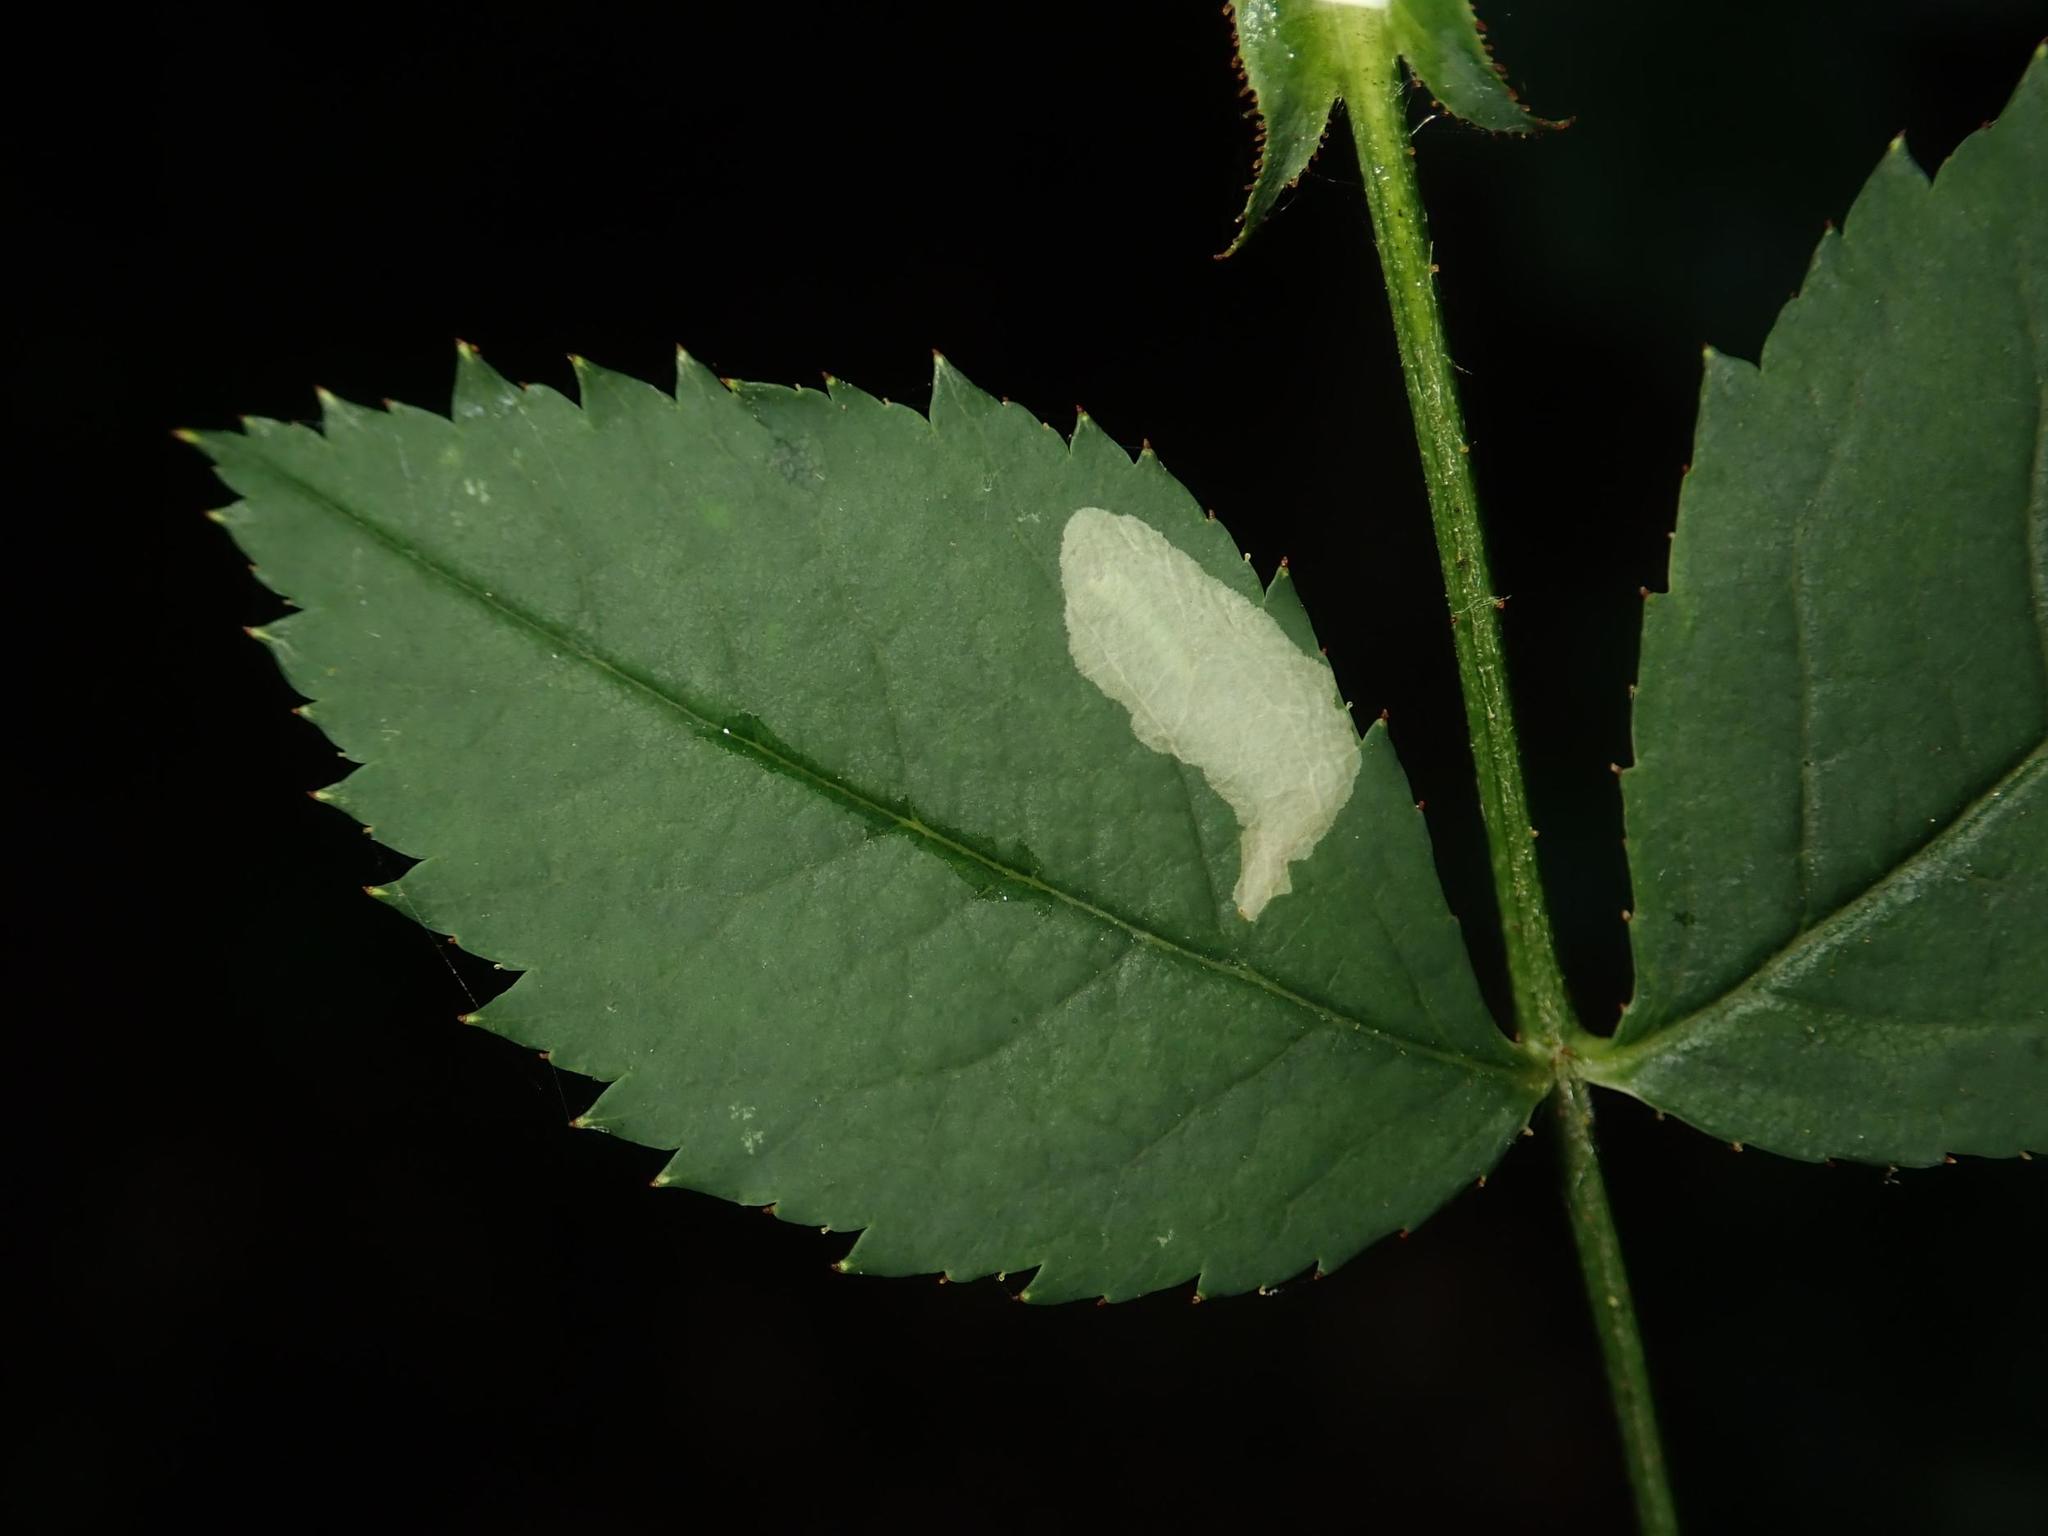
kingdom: Animalia
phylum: Arthropoda
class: Insecta
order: Lepidoptera
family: Tischeriidae
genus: Coptotriche
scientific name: Coptotriche angusticolella
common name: Rose carl
